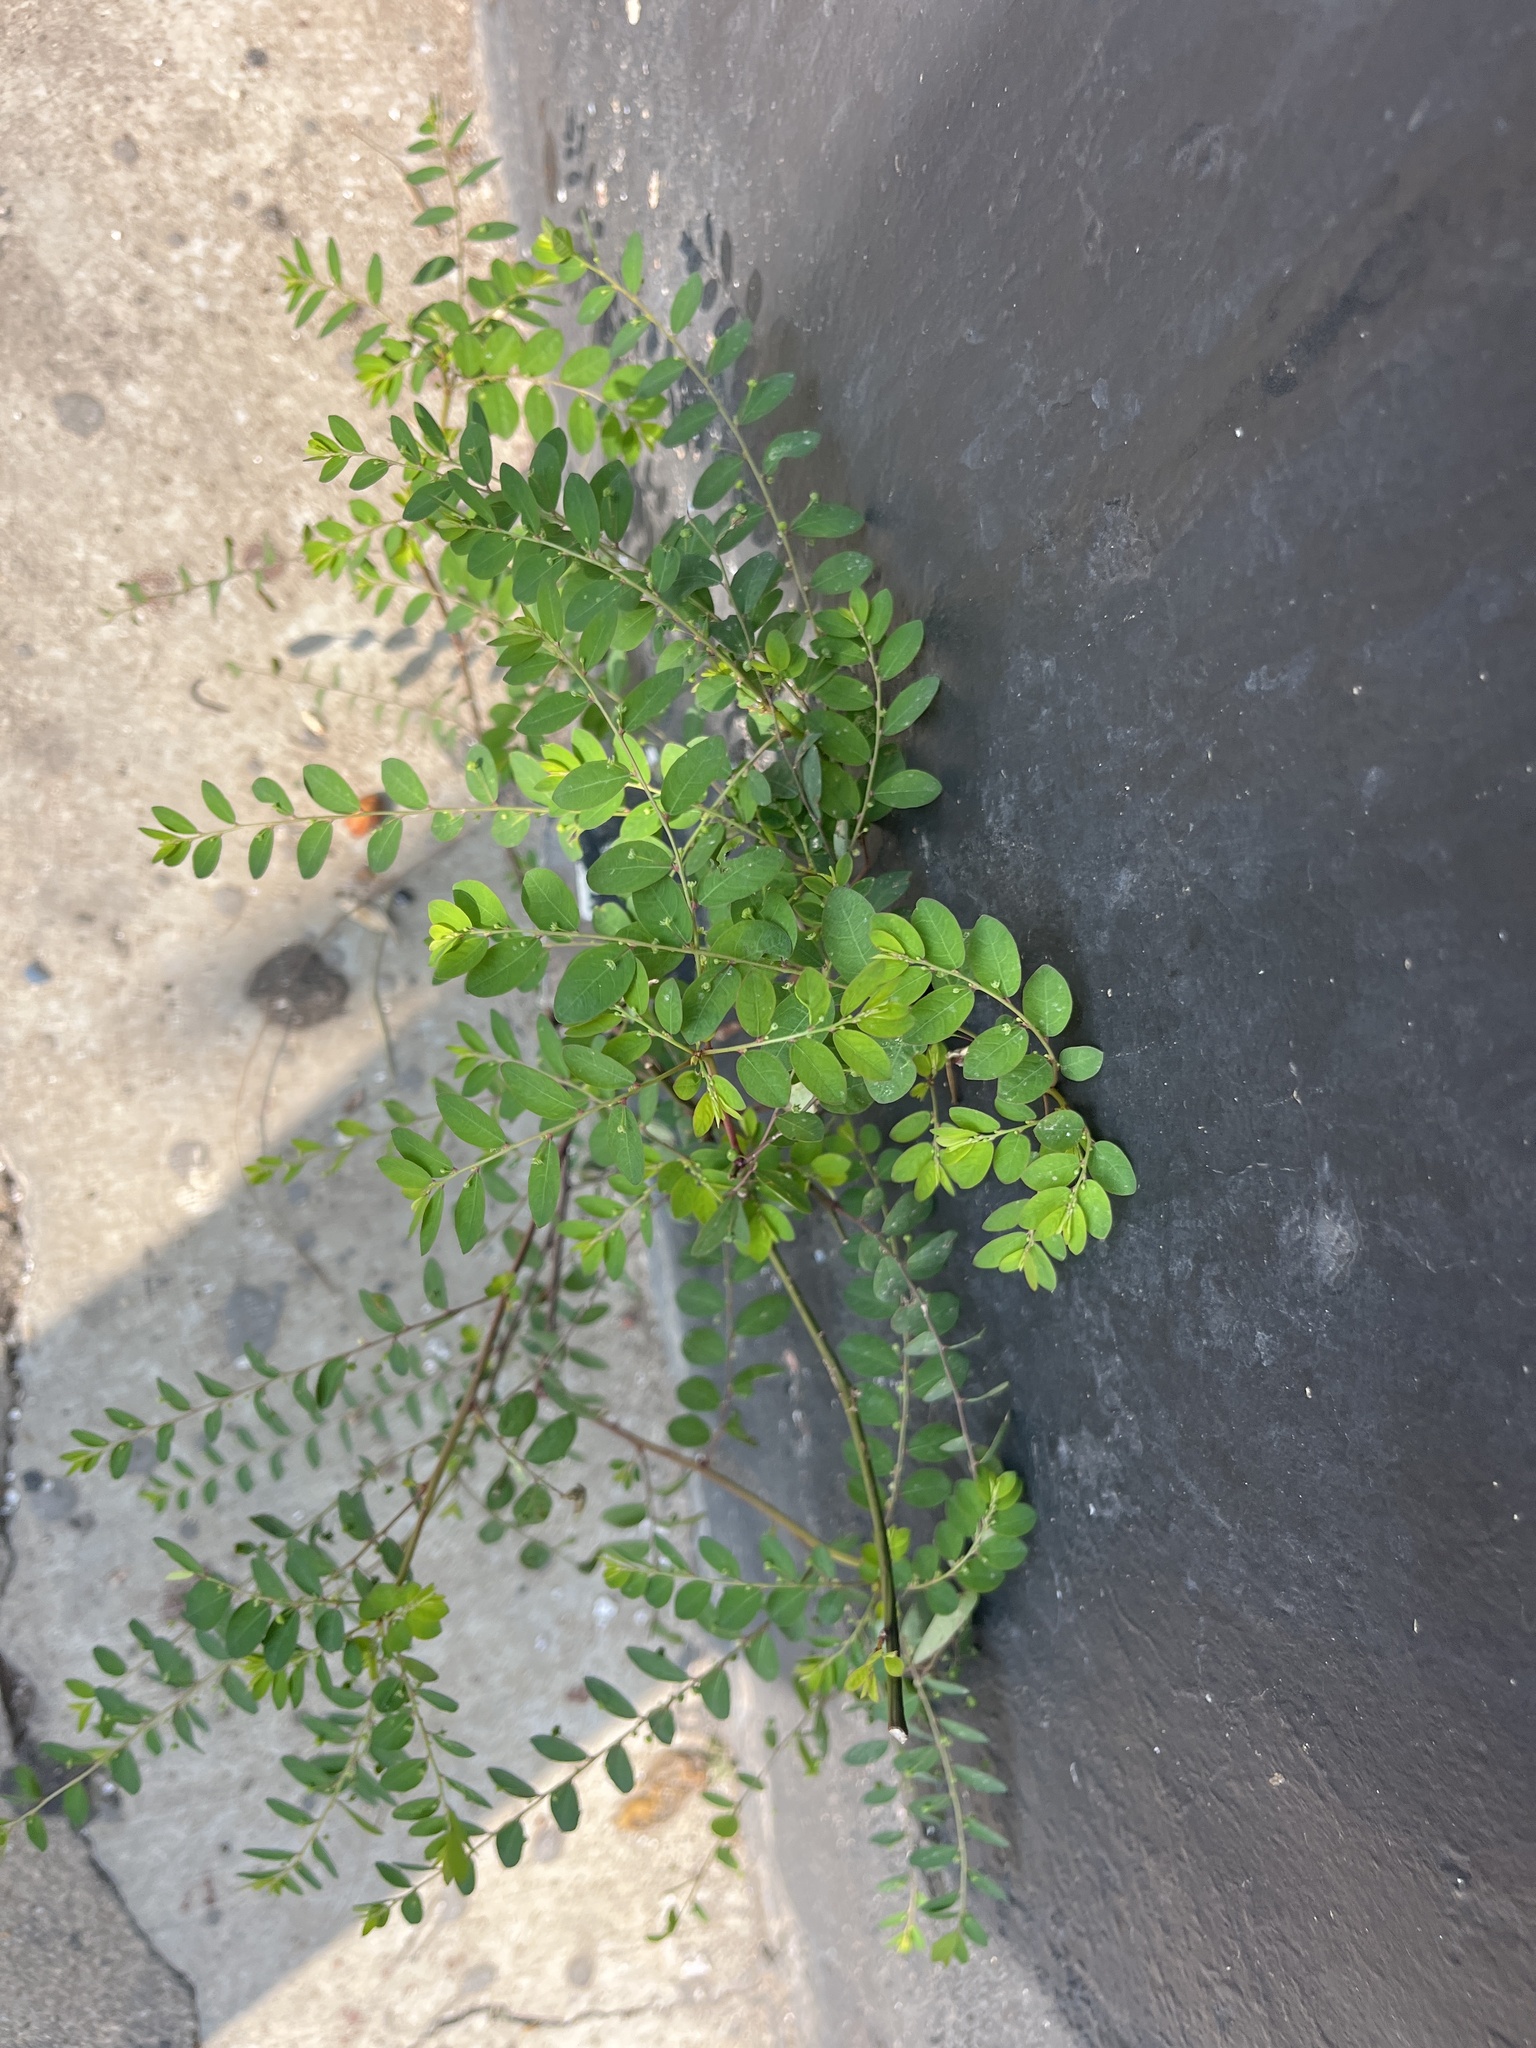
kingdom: Plantae
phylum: Tracheophyta
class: Magnoliopsida
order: Malpighiales
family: Phyllanthaceae
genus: Phyllanthus
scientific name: Phyllanthus tenellus
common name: Mascarene island leaf-flower
